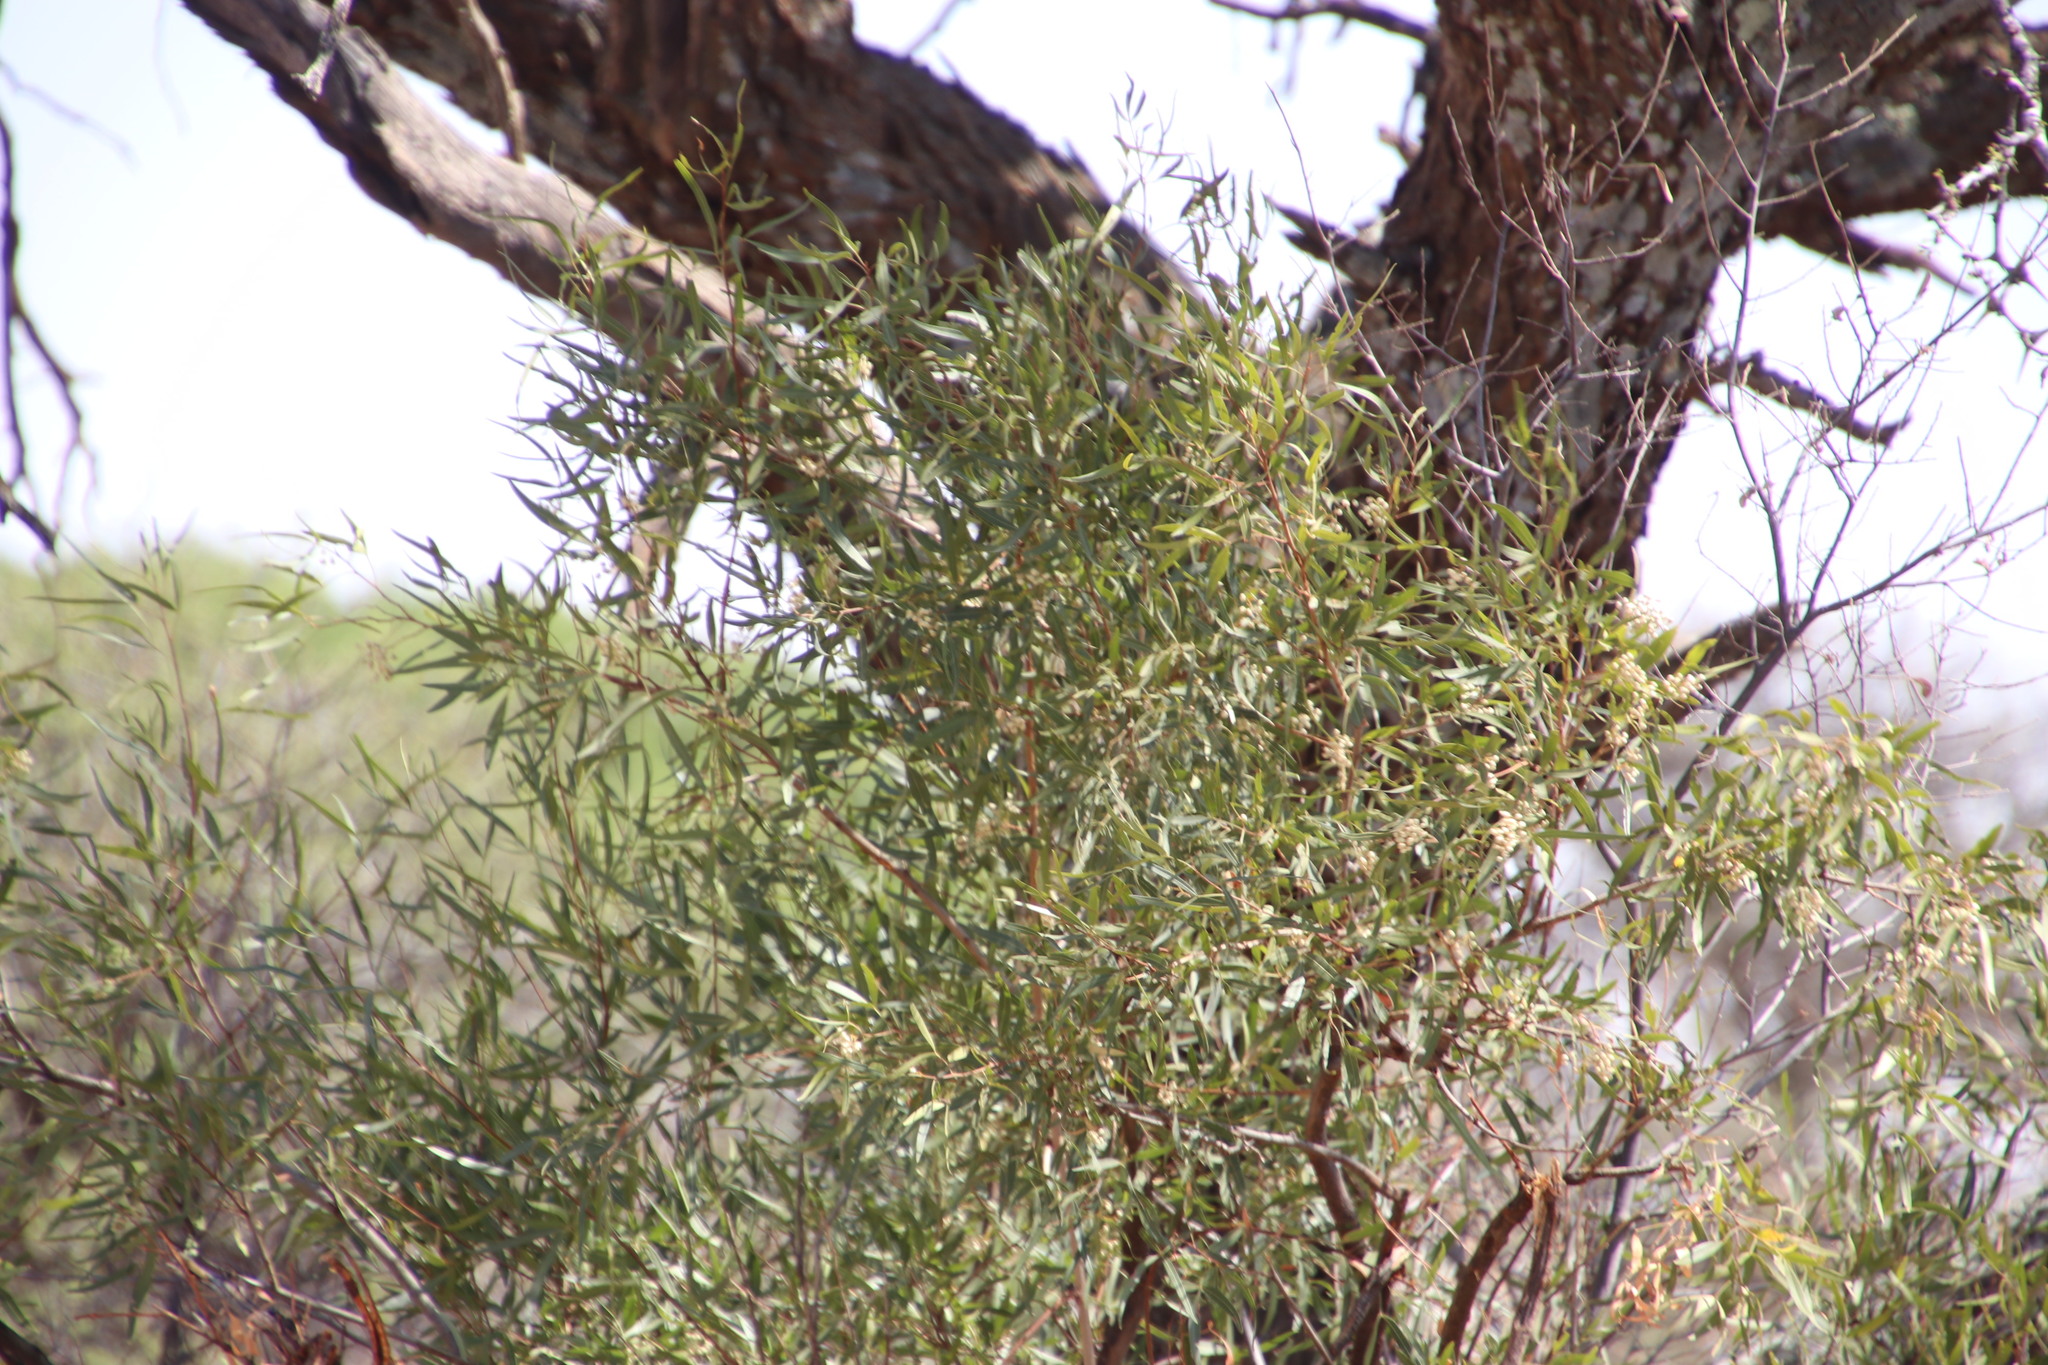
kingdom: Plantae
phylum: Tracheophyta
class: Magnoliopsida
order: Sapindales
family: Anacardiaceae
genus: Searsia
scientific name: Searsia lancea
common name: Cashew
